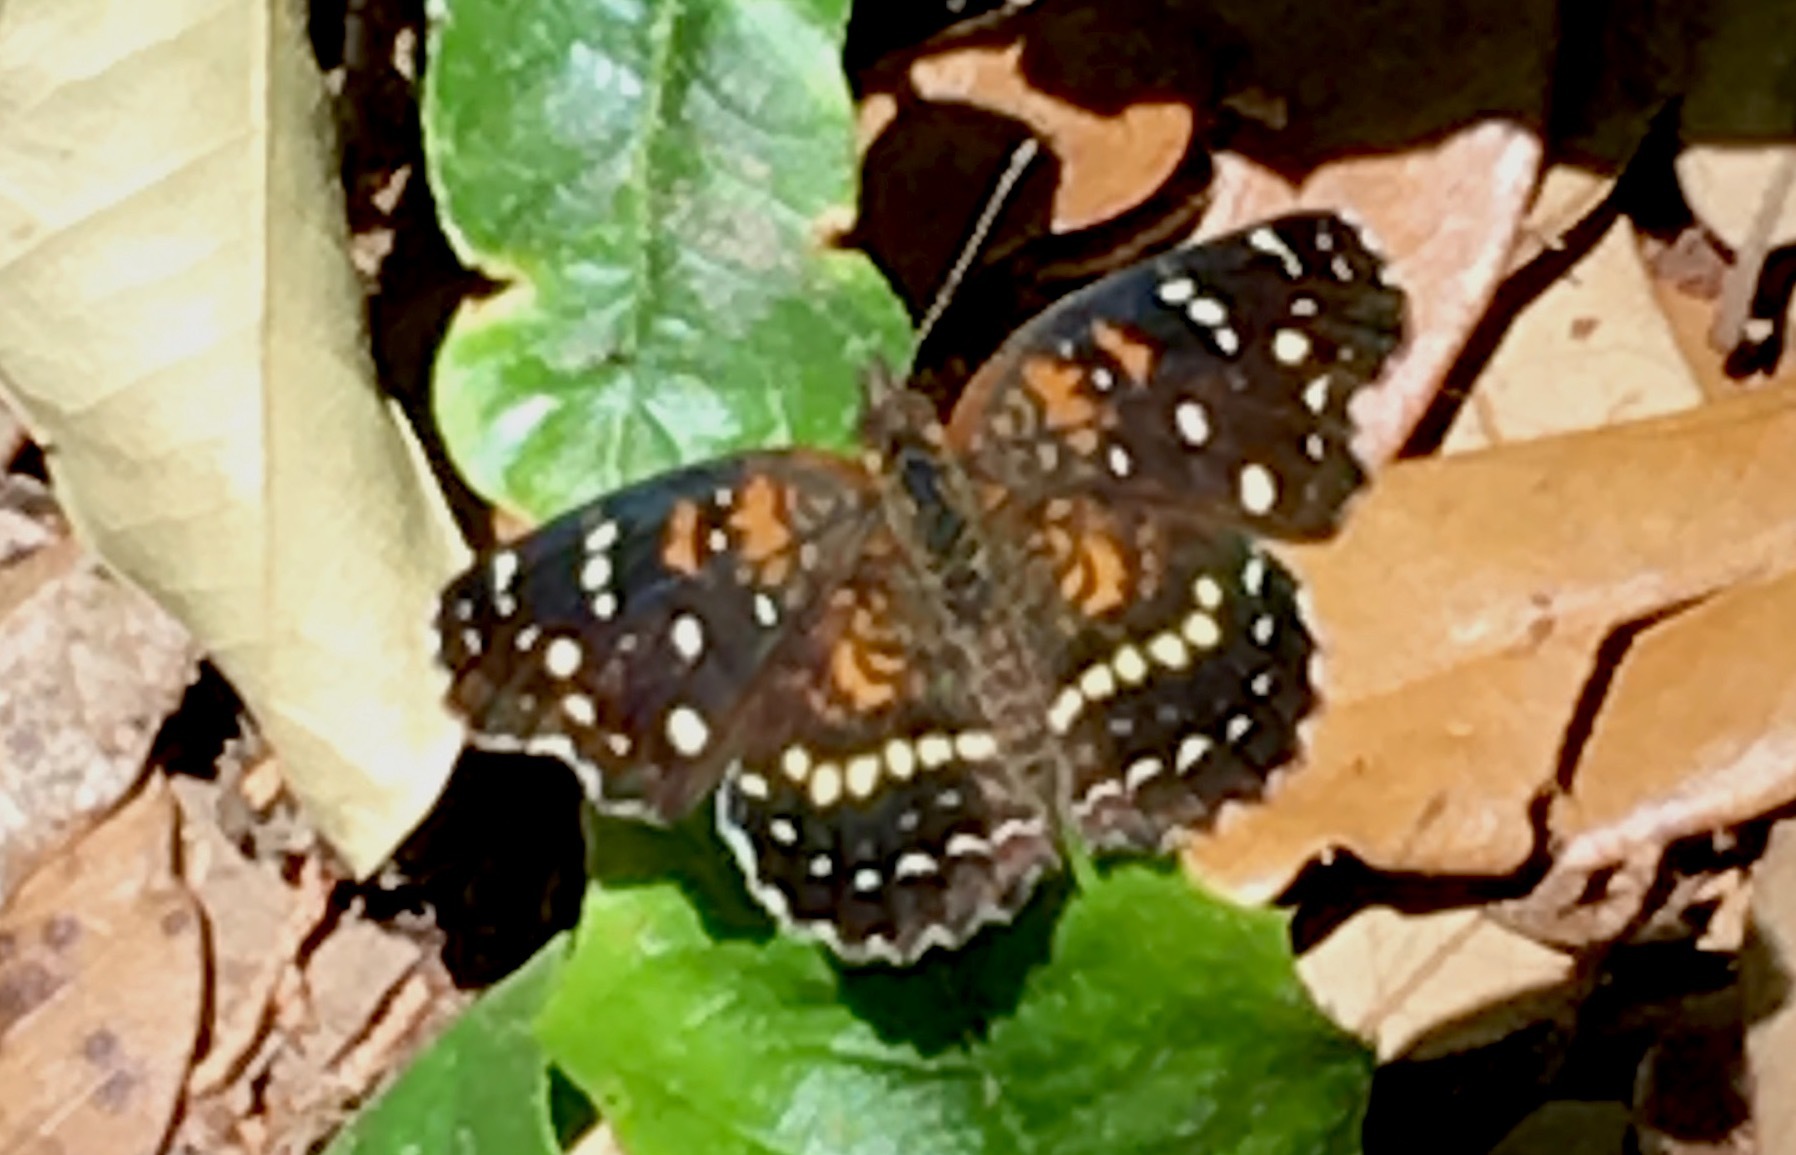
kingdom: Animalia
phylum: Arthropoda
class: Insecta
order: Lepidoptera
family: Nymphalidae
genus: Anthanassa
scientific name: Anthanassa texana
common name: Texan crescent
